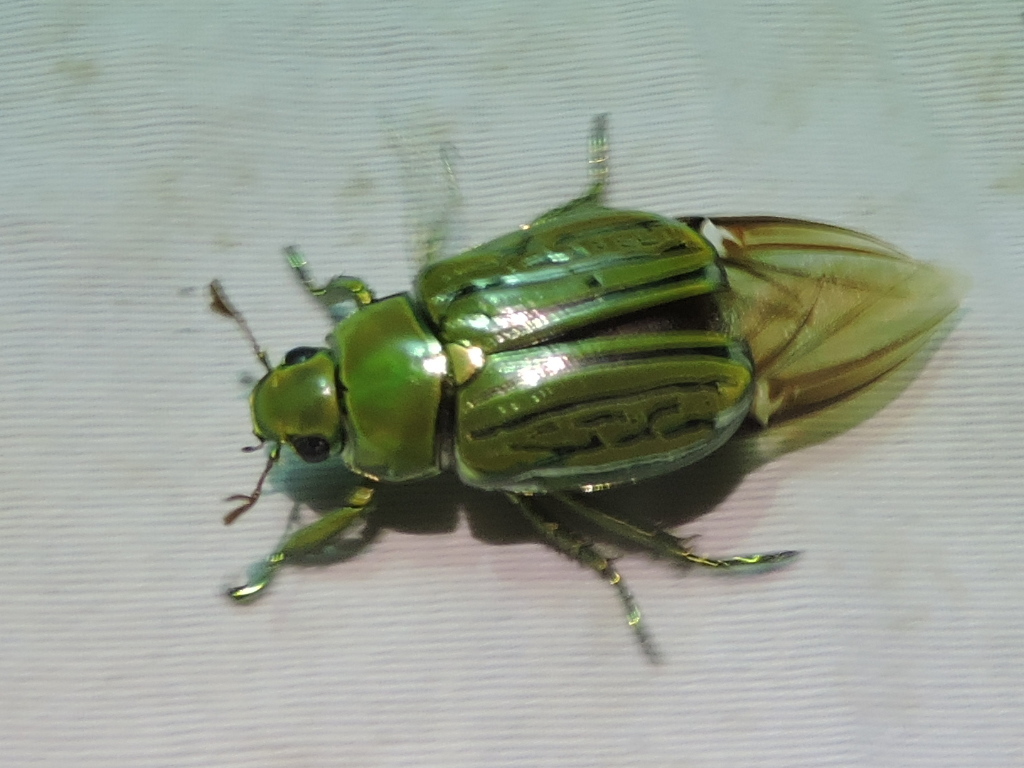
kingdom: Animalia
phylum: Arthropoda
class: Insecta
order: Coleoptera
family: Scarabaeidae
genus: Chrysina
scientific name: Chrysina gloriosa
